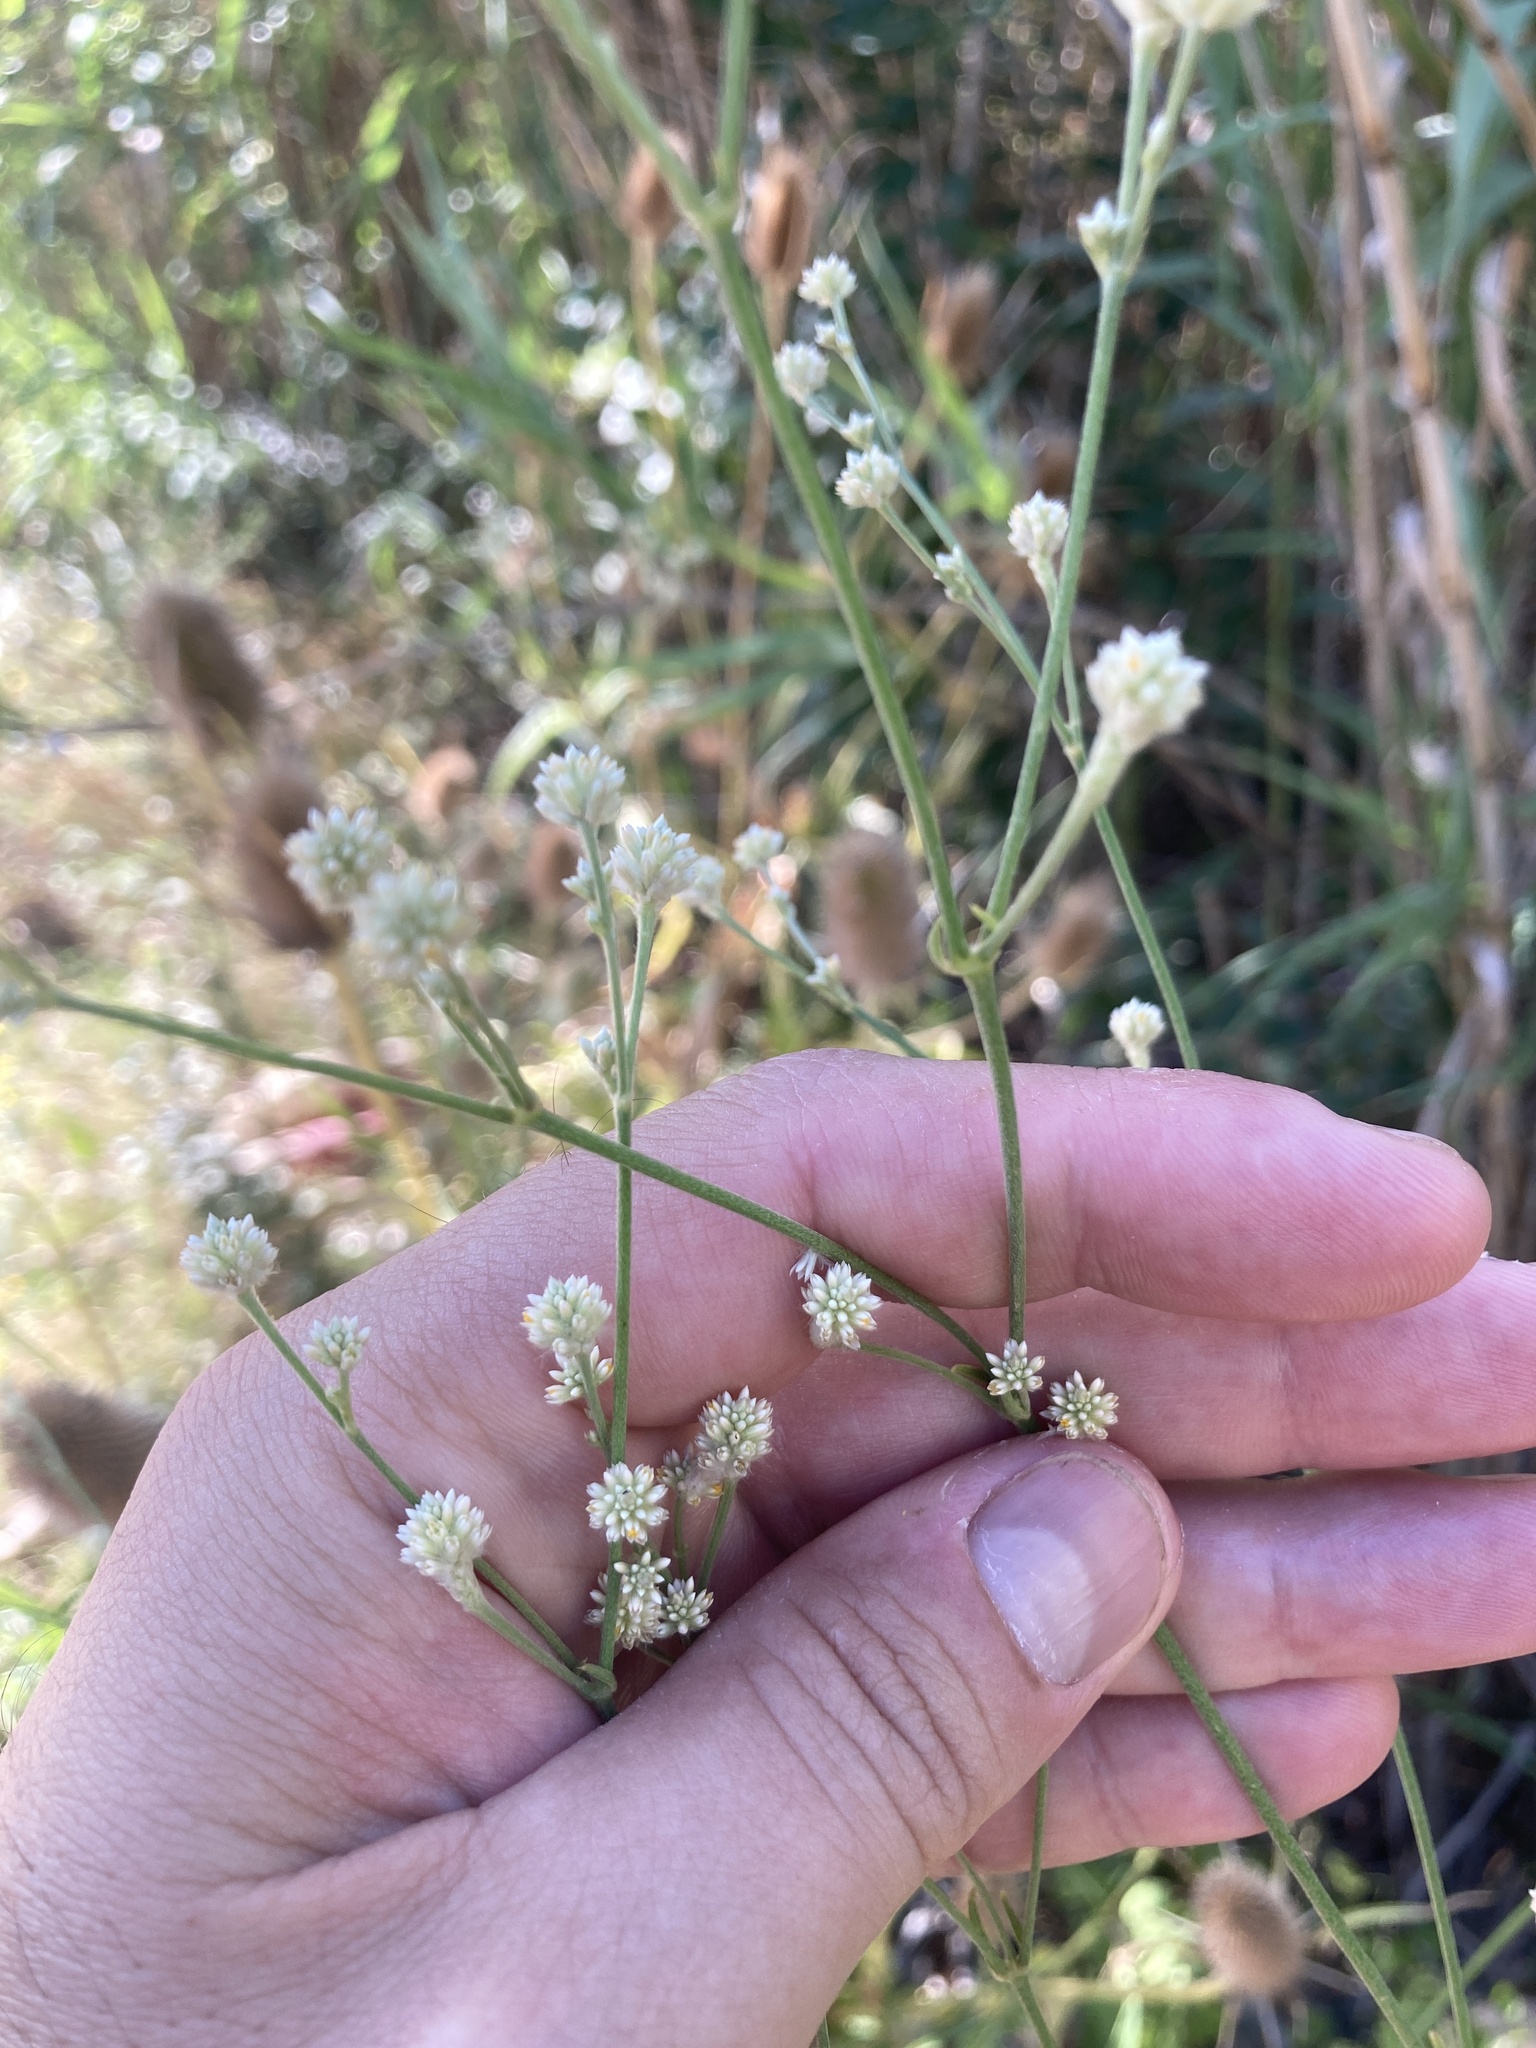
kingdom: Plantae
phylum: Tracheophyta
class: Magnoliopsida
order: Caryophyllales
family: Amaranthaceae
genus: Pfaffia
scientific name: Pfaffia glomerata
